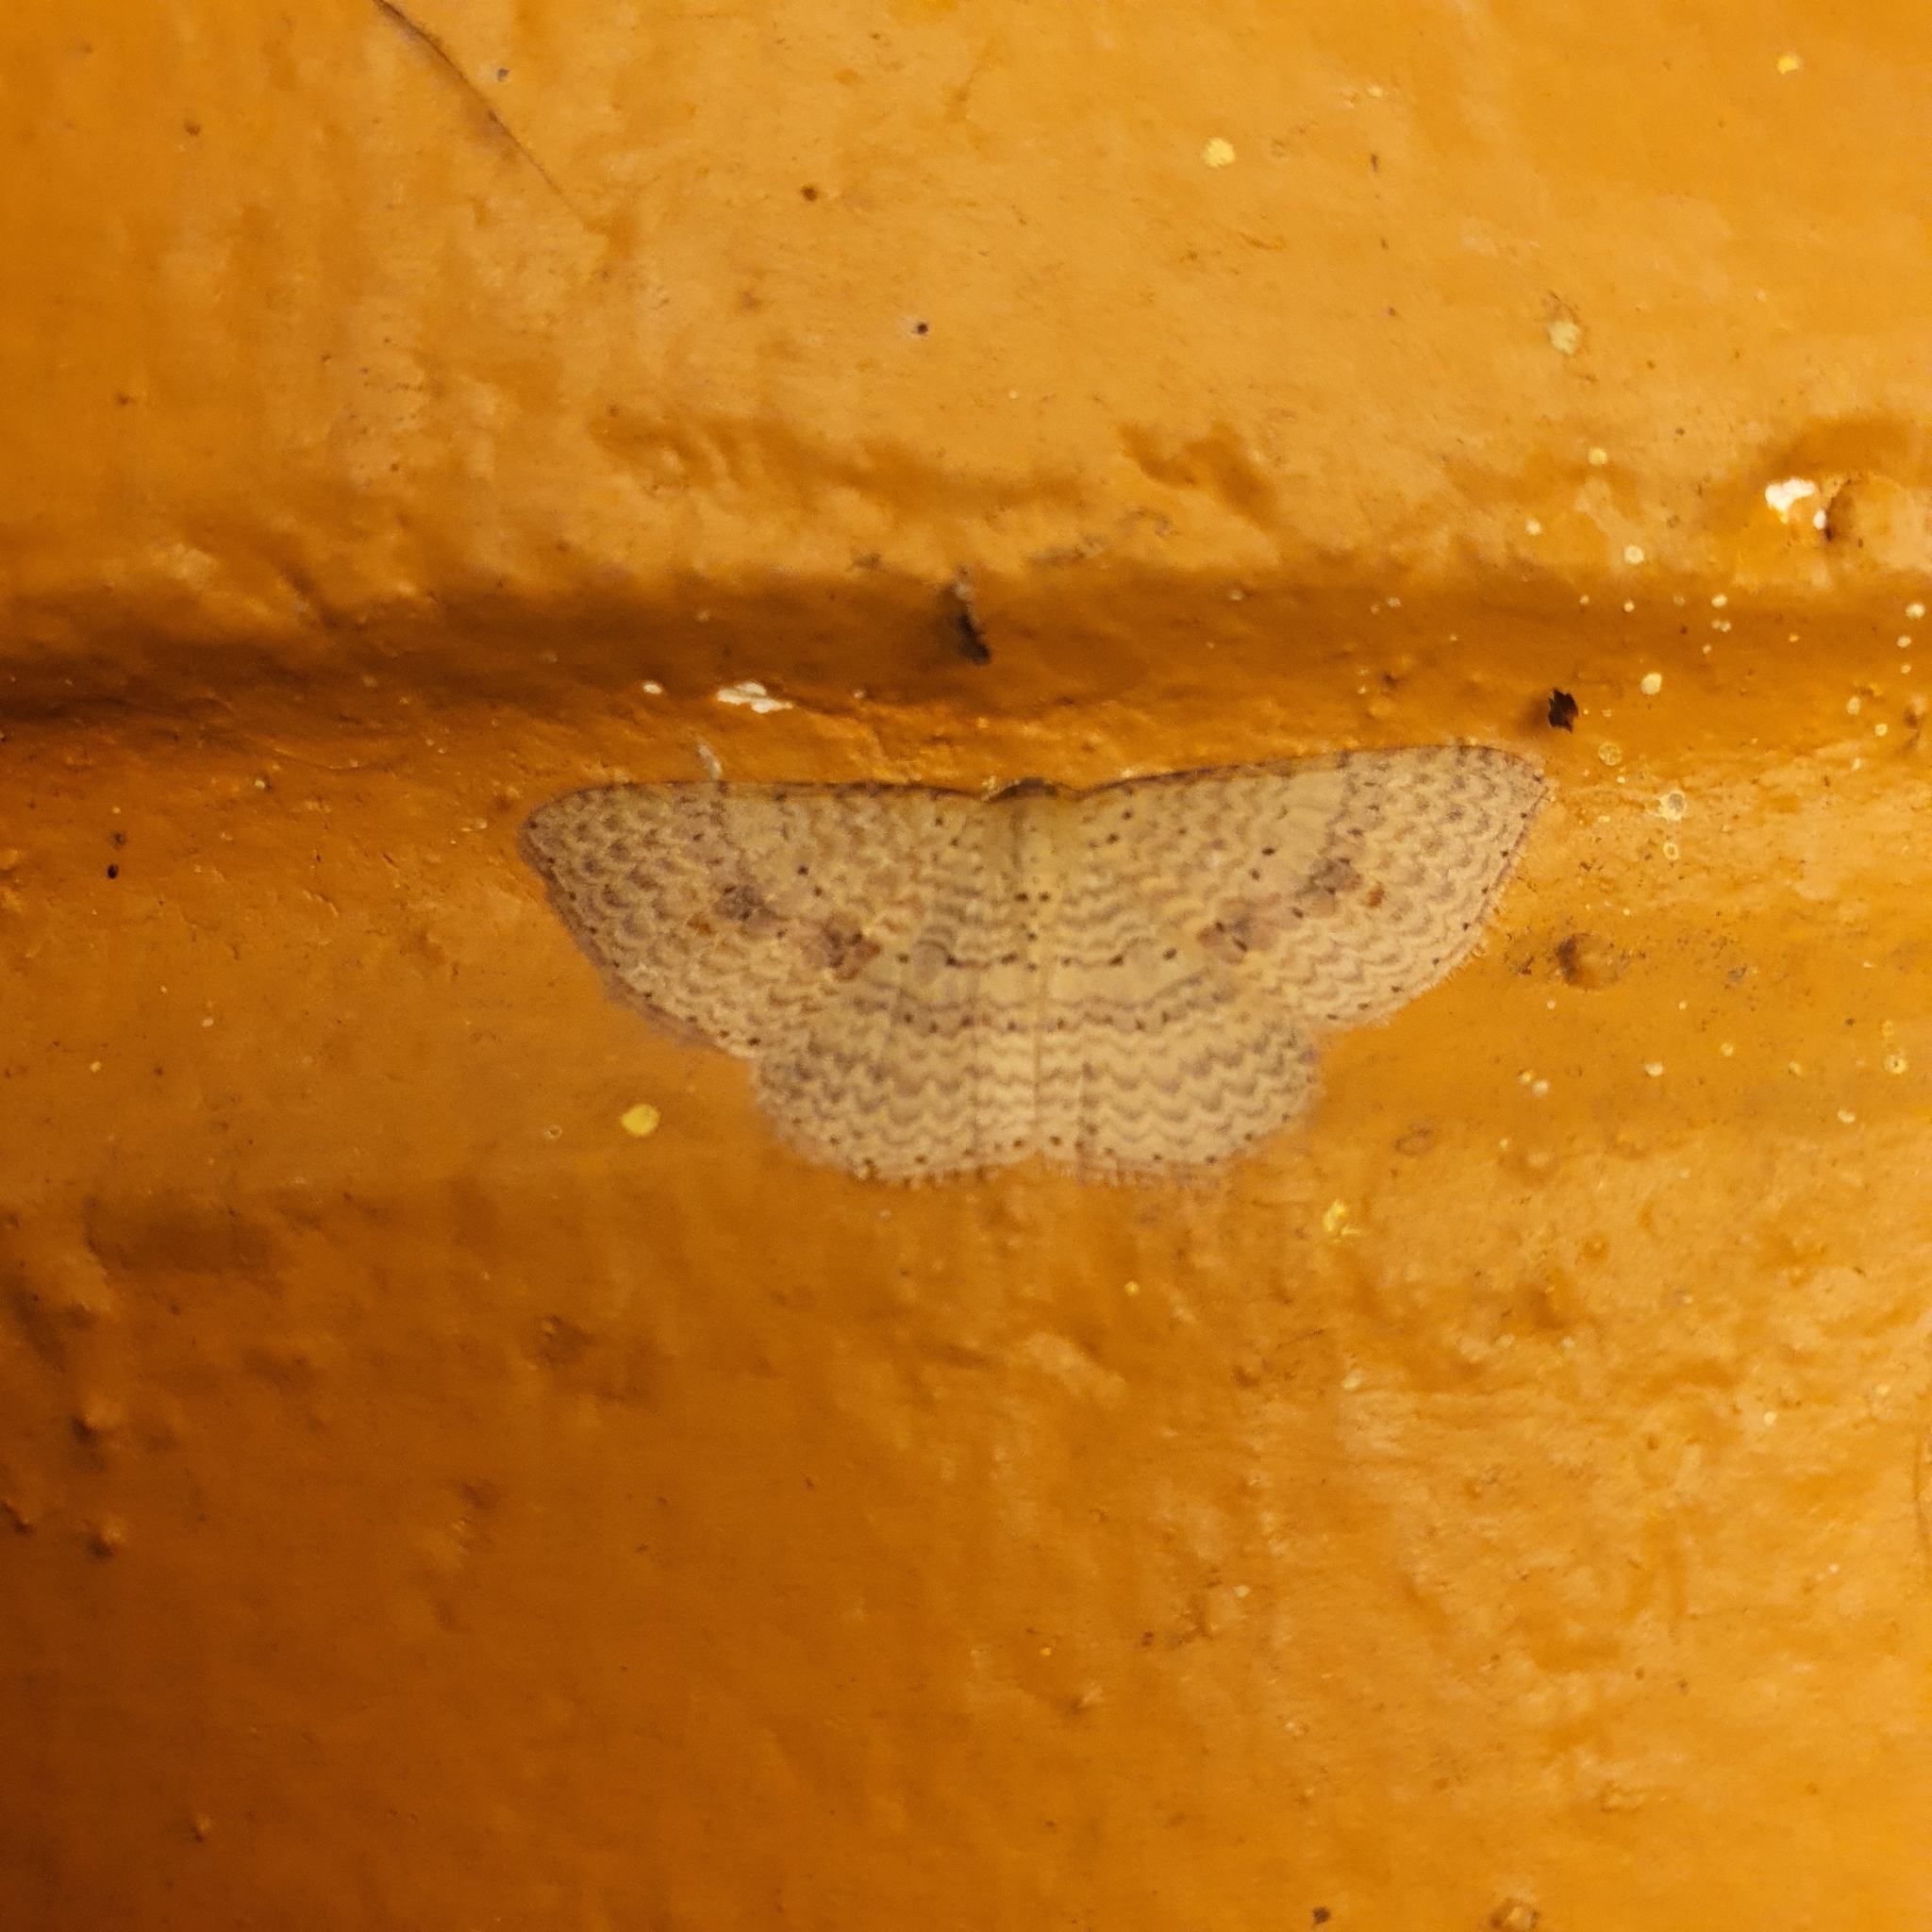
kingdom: Animalia
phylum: Arthropoda
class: Insecta
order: Lepidoptera
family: Geometridae
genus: Epicyme
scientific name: Epicyme rubropunctaria
